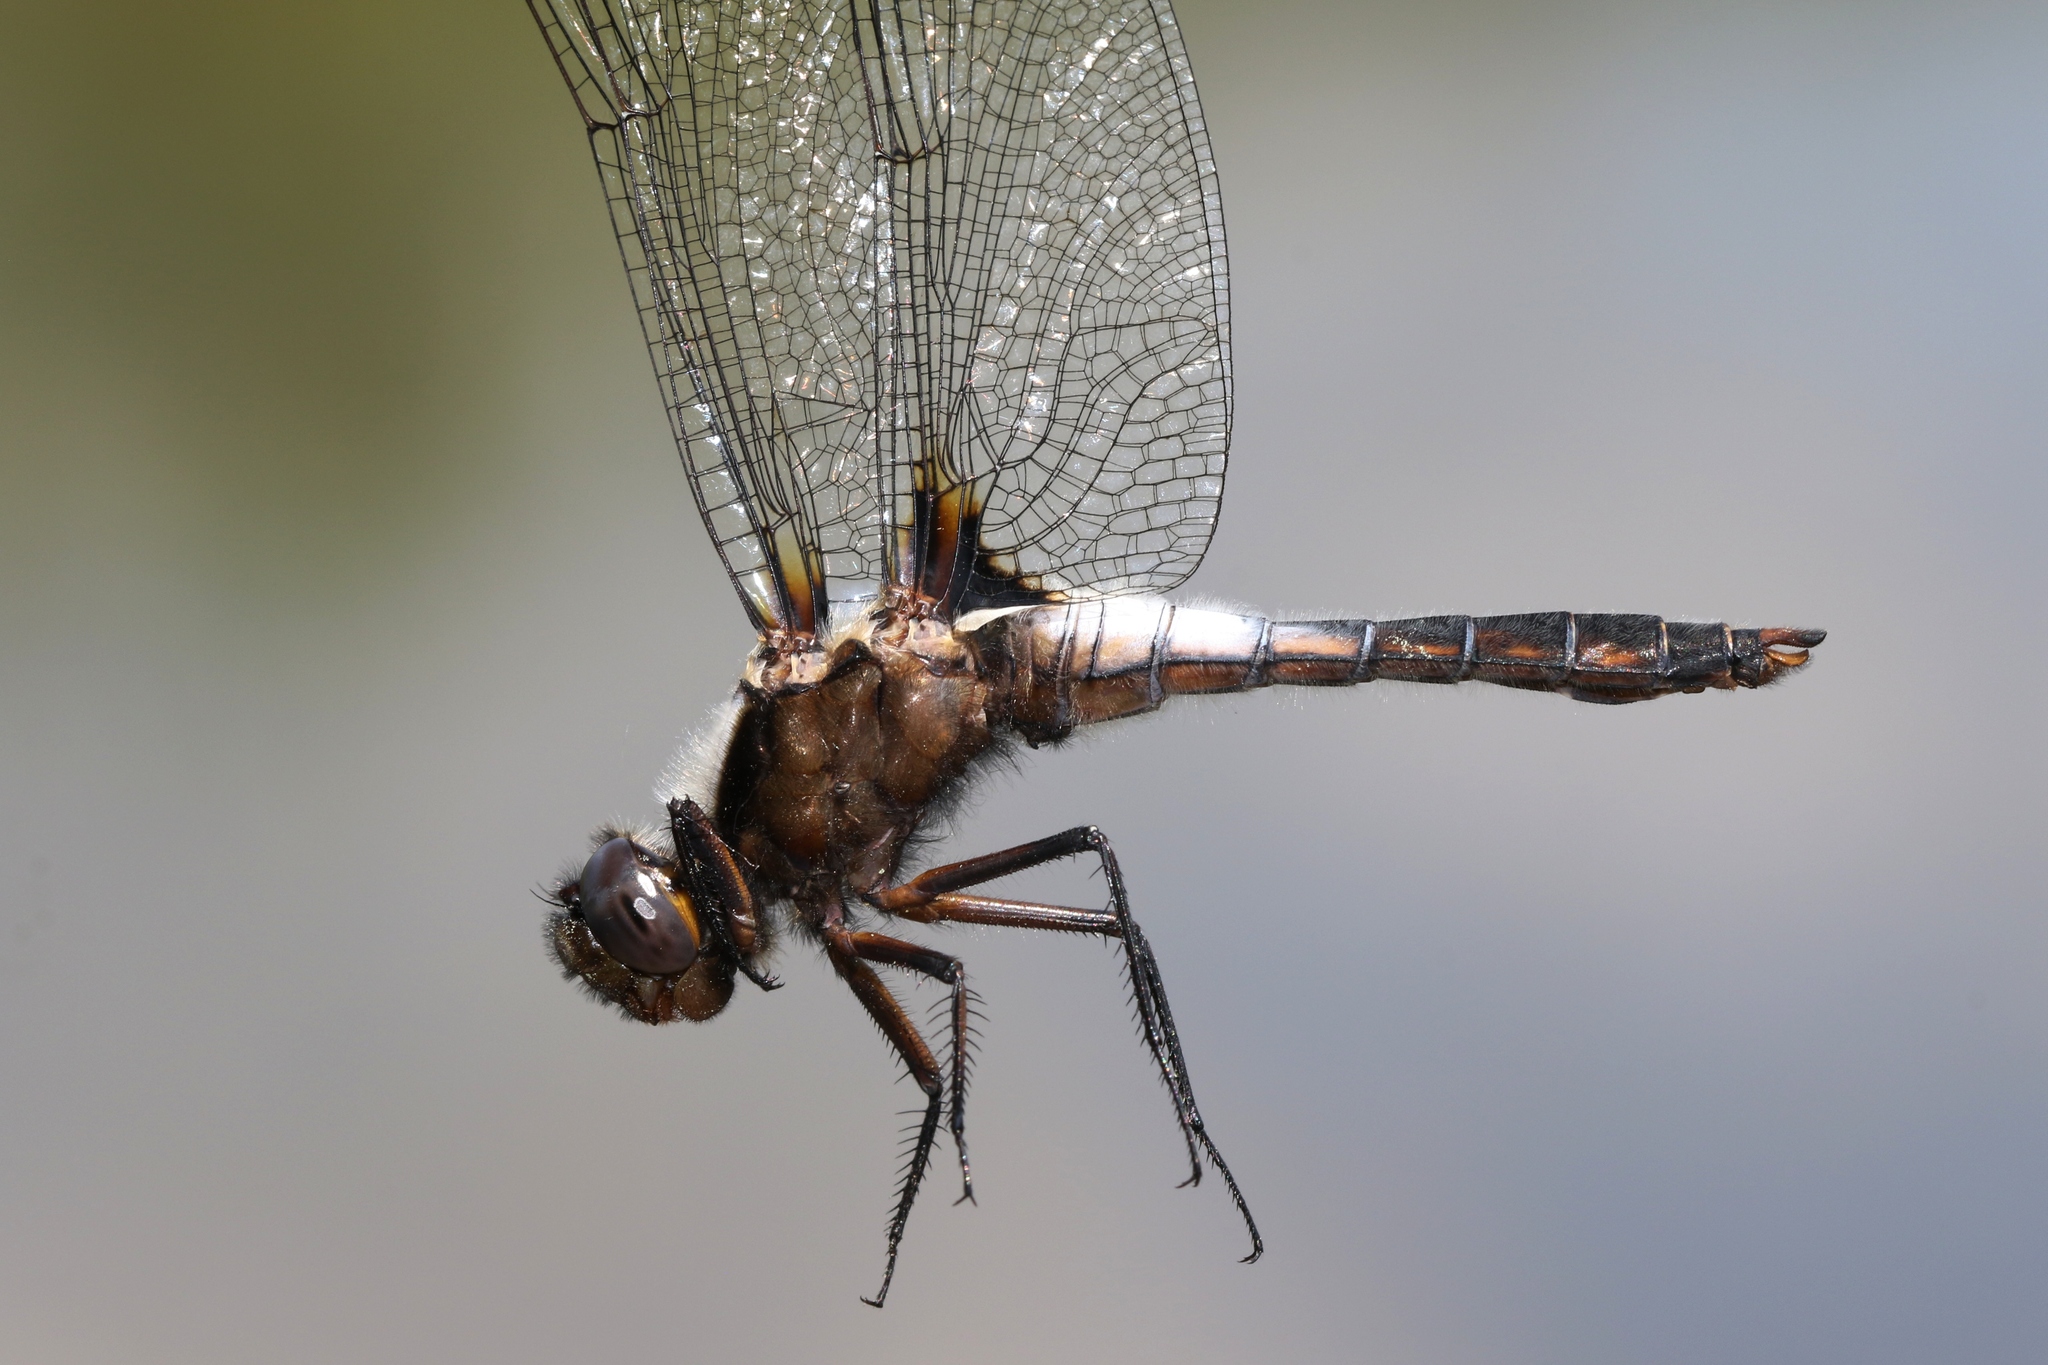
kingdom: Animalia
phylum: Arthropoda
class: Insecta
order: Odonata
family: Libellulidae
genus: Ladona
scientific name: Ladona julia
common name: Chalk-fronted corporal
